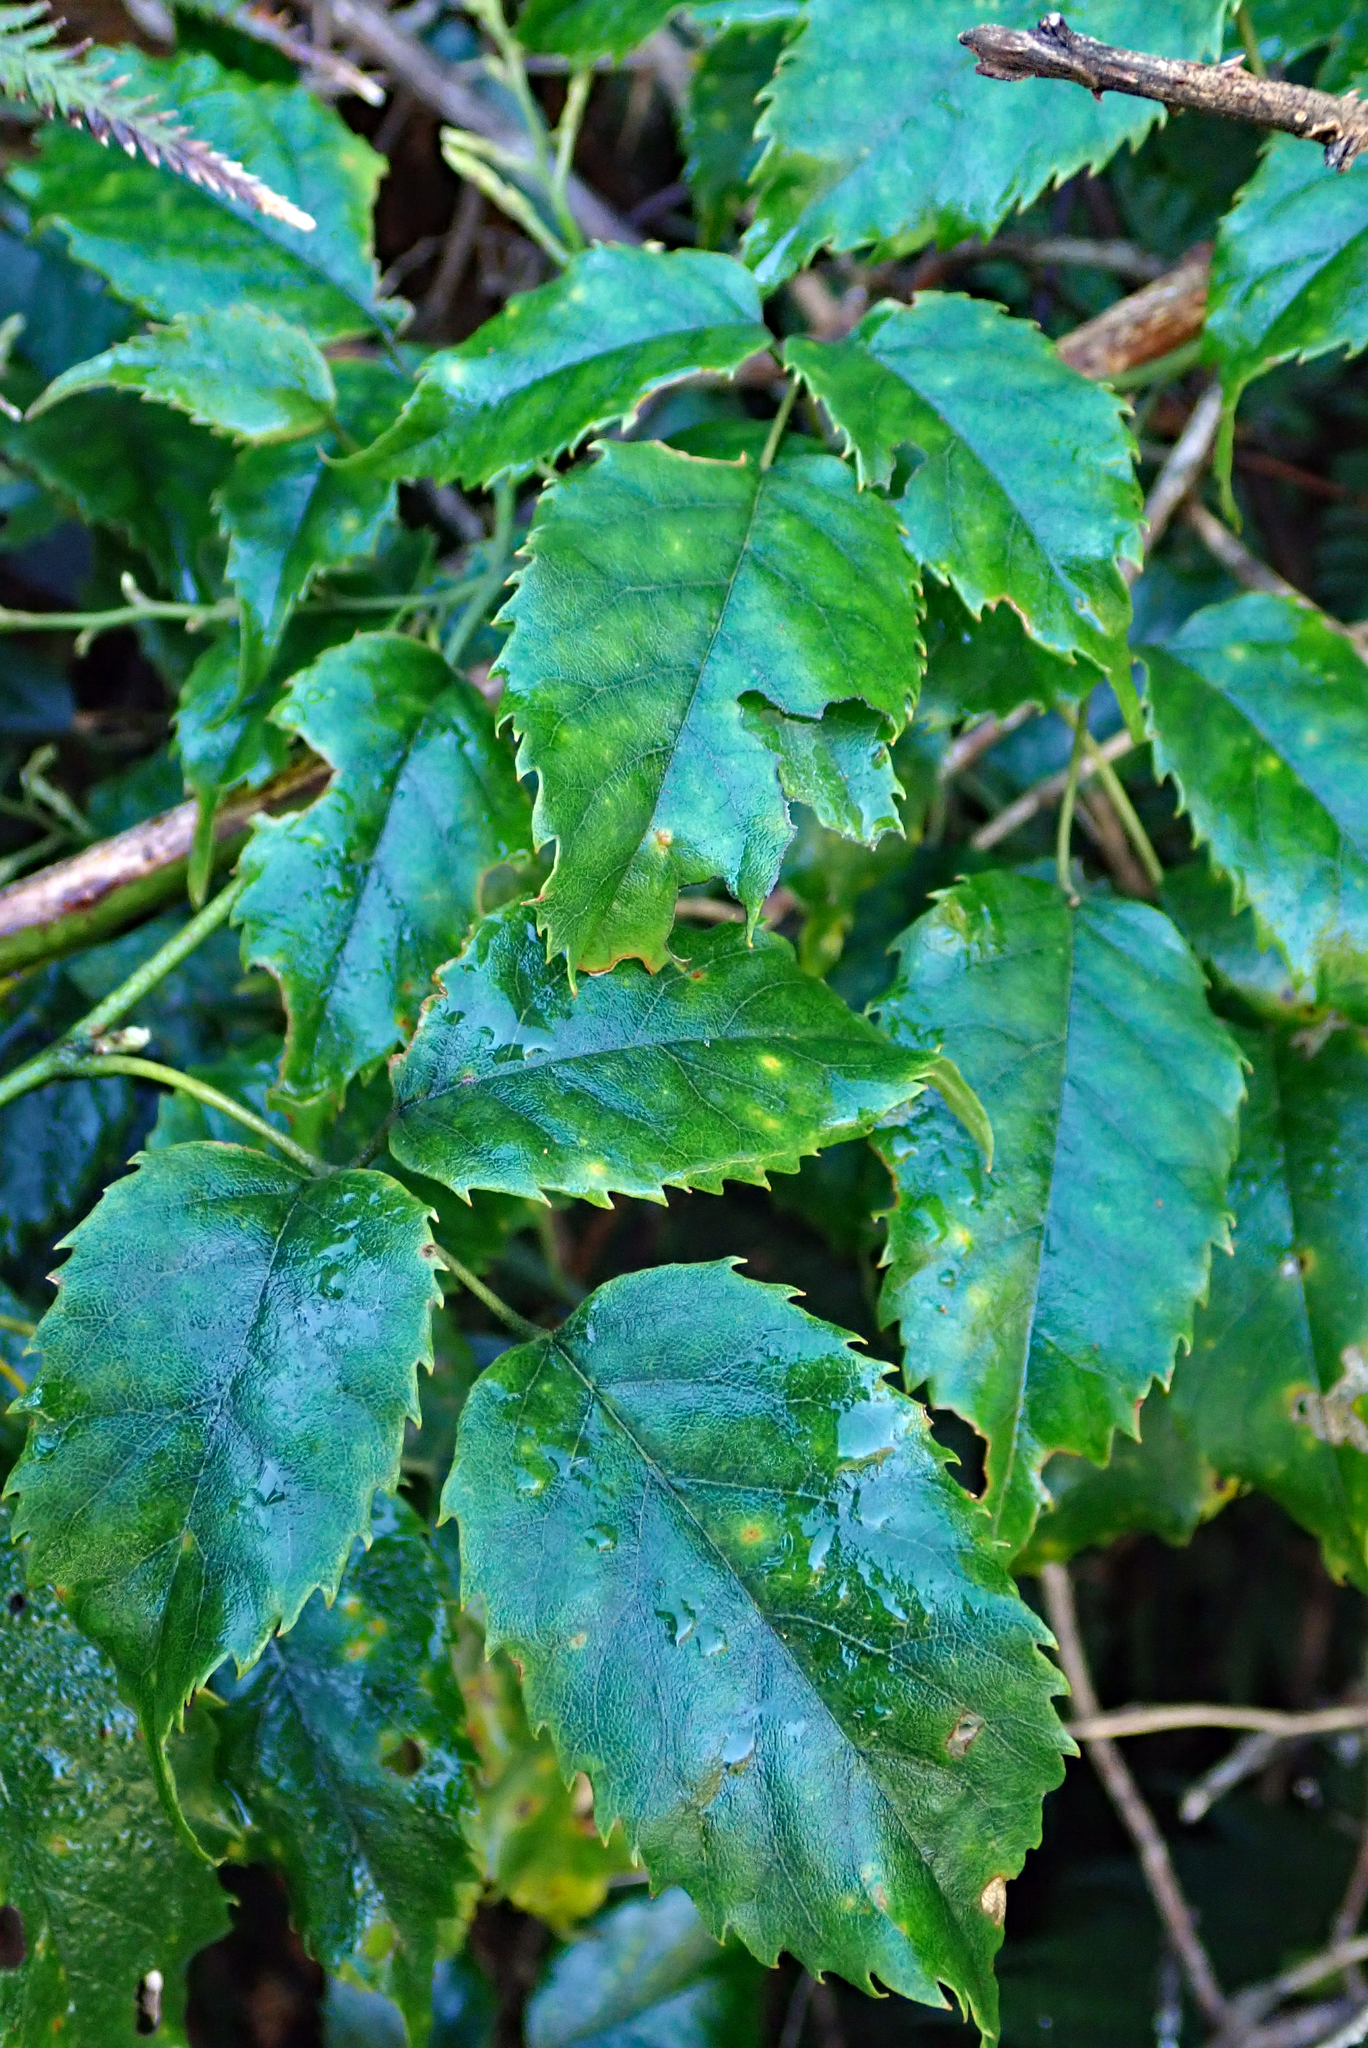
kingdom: Plantae
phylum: Tracheophyta
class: Magnoliopsida
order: Rosales
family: Rosaceae
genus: Rubus
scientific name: Rubus cissoides
